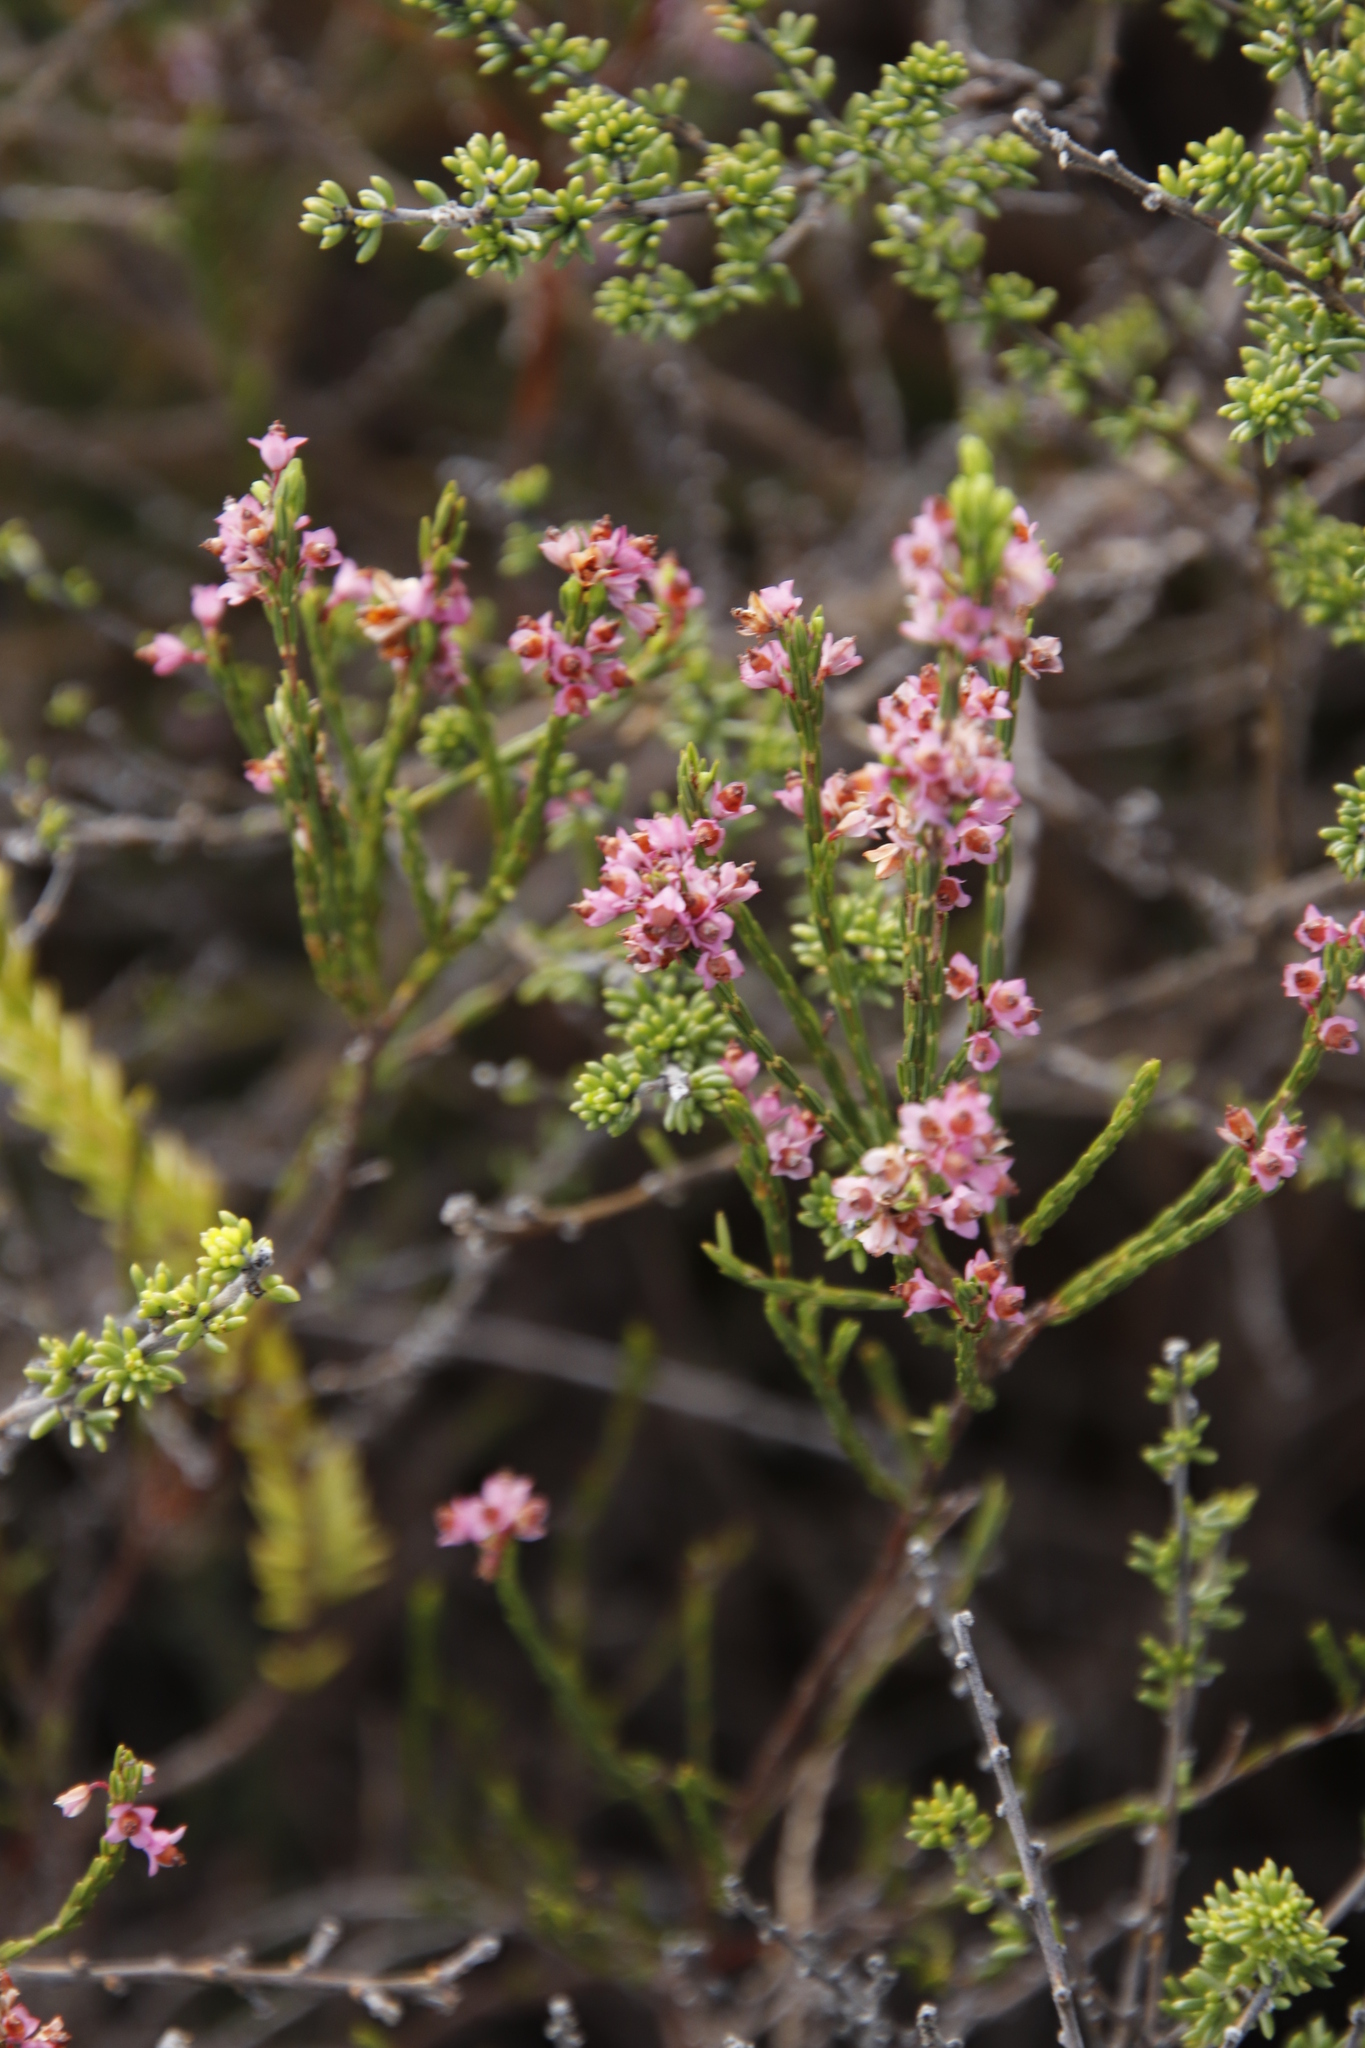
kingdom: Plantae
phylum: Tracheophyta
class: Magnoliopsida
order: Ericales
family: Ericaceae
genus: Erica
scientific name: Erica corifolia
